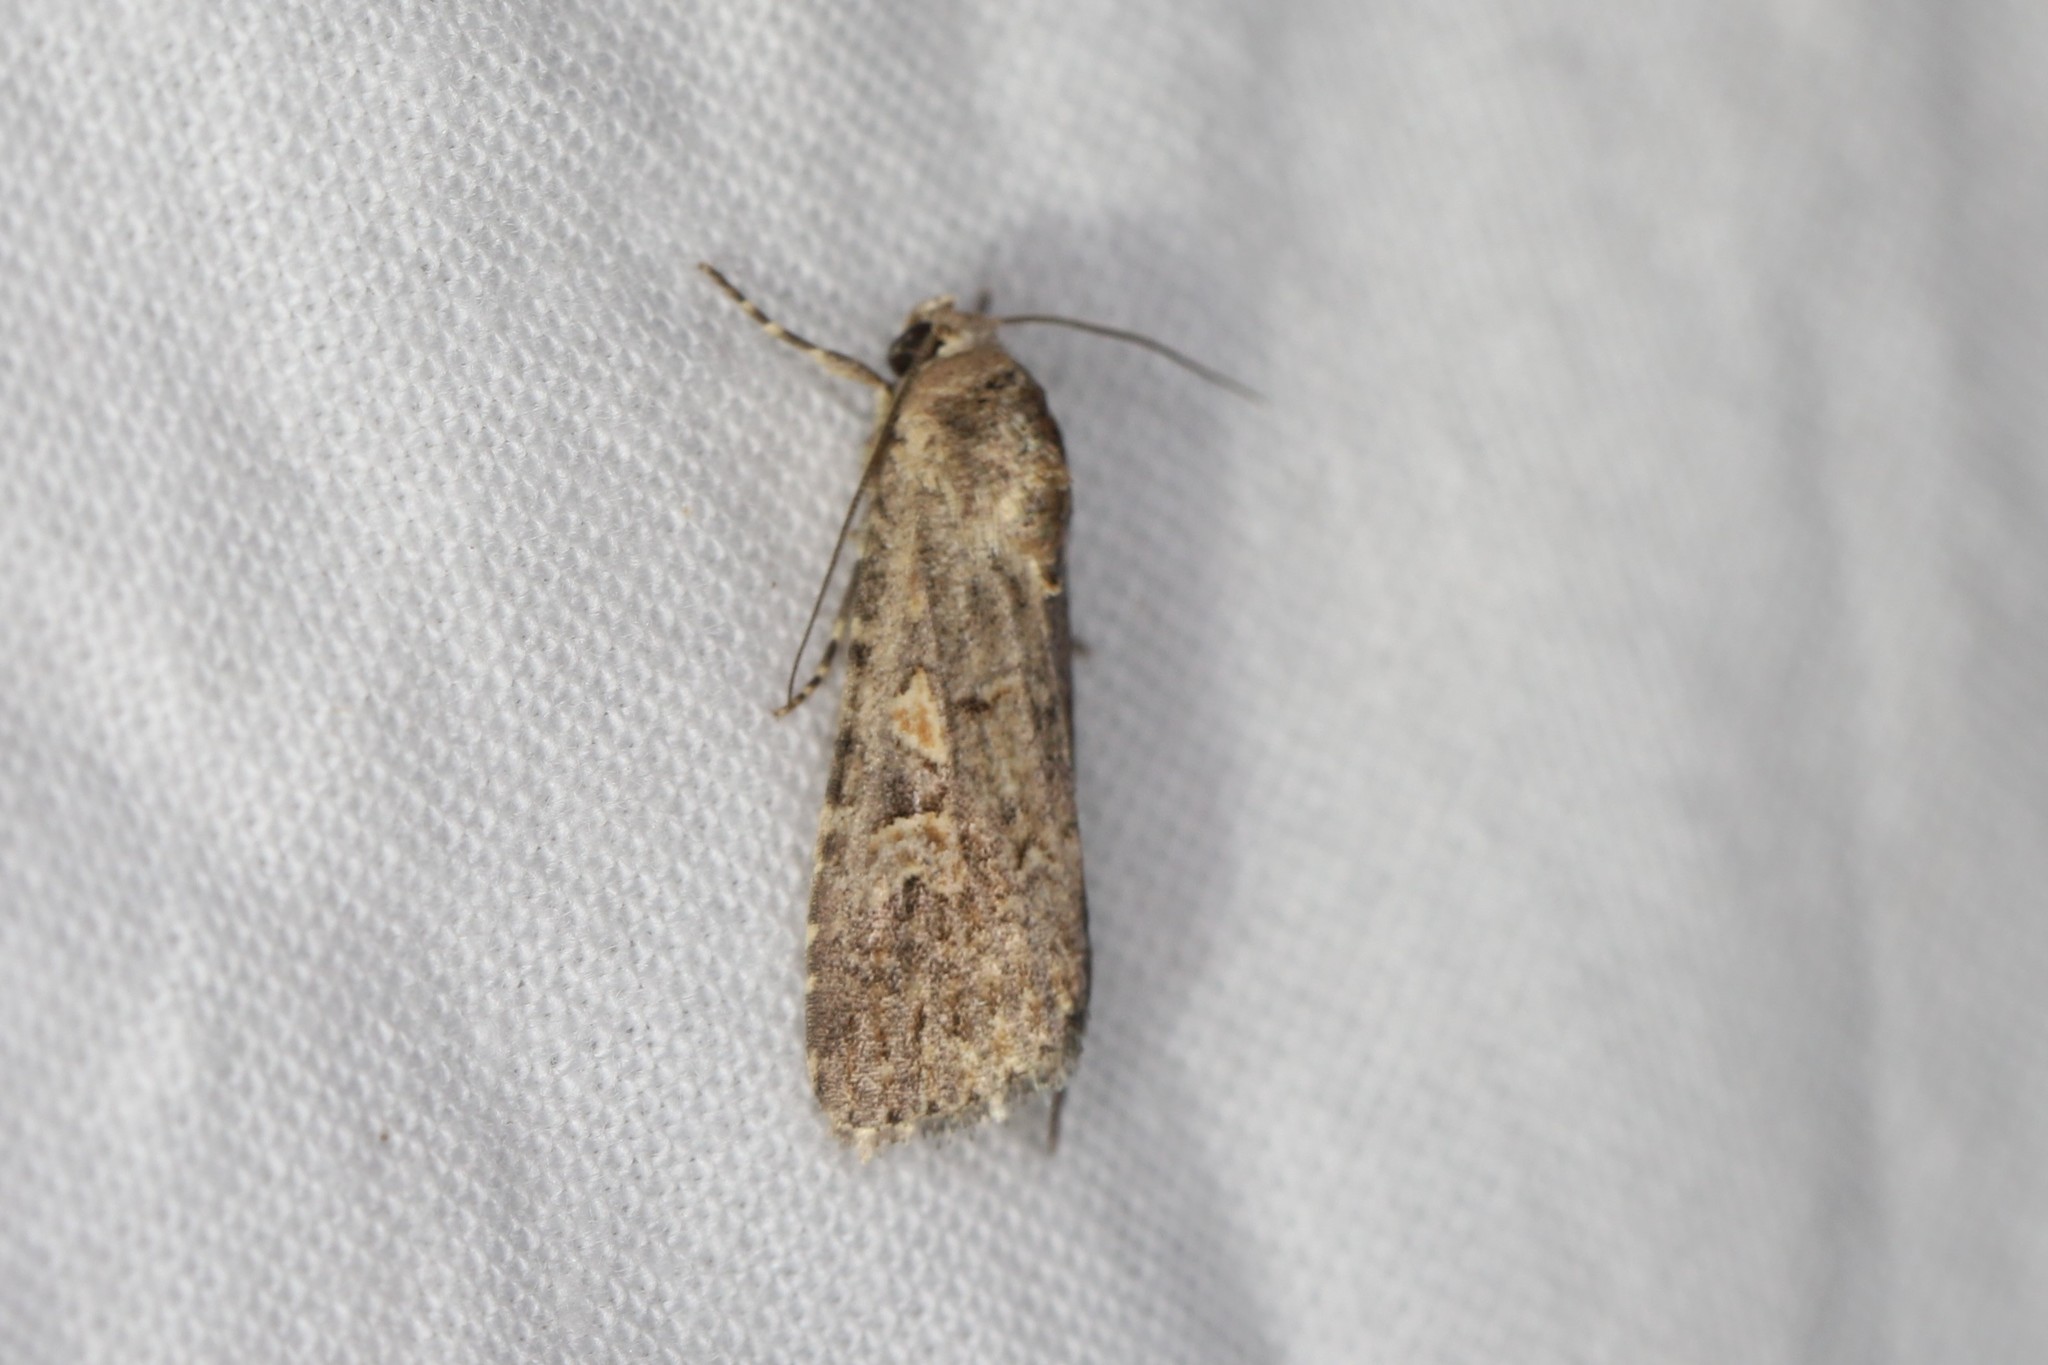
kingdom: Animalia
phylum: Arthropoda
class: Insecta
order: Lepidoptera
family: Noctuidae
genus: Spodoptera
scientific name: Spodoptera exigua
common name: Beet armyworm
